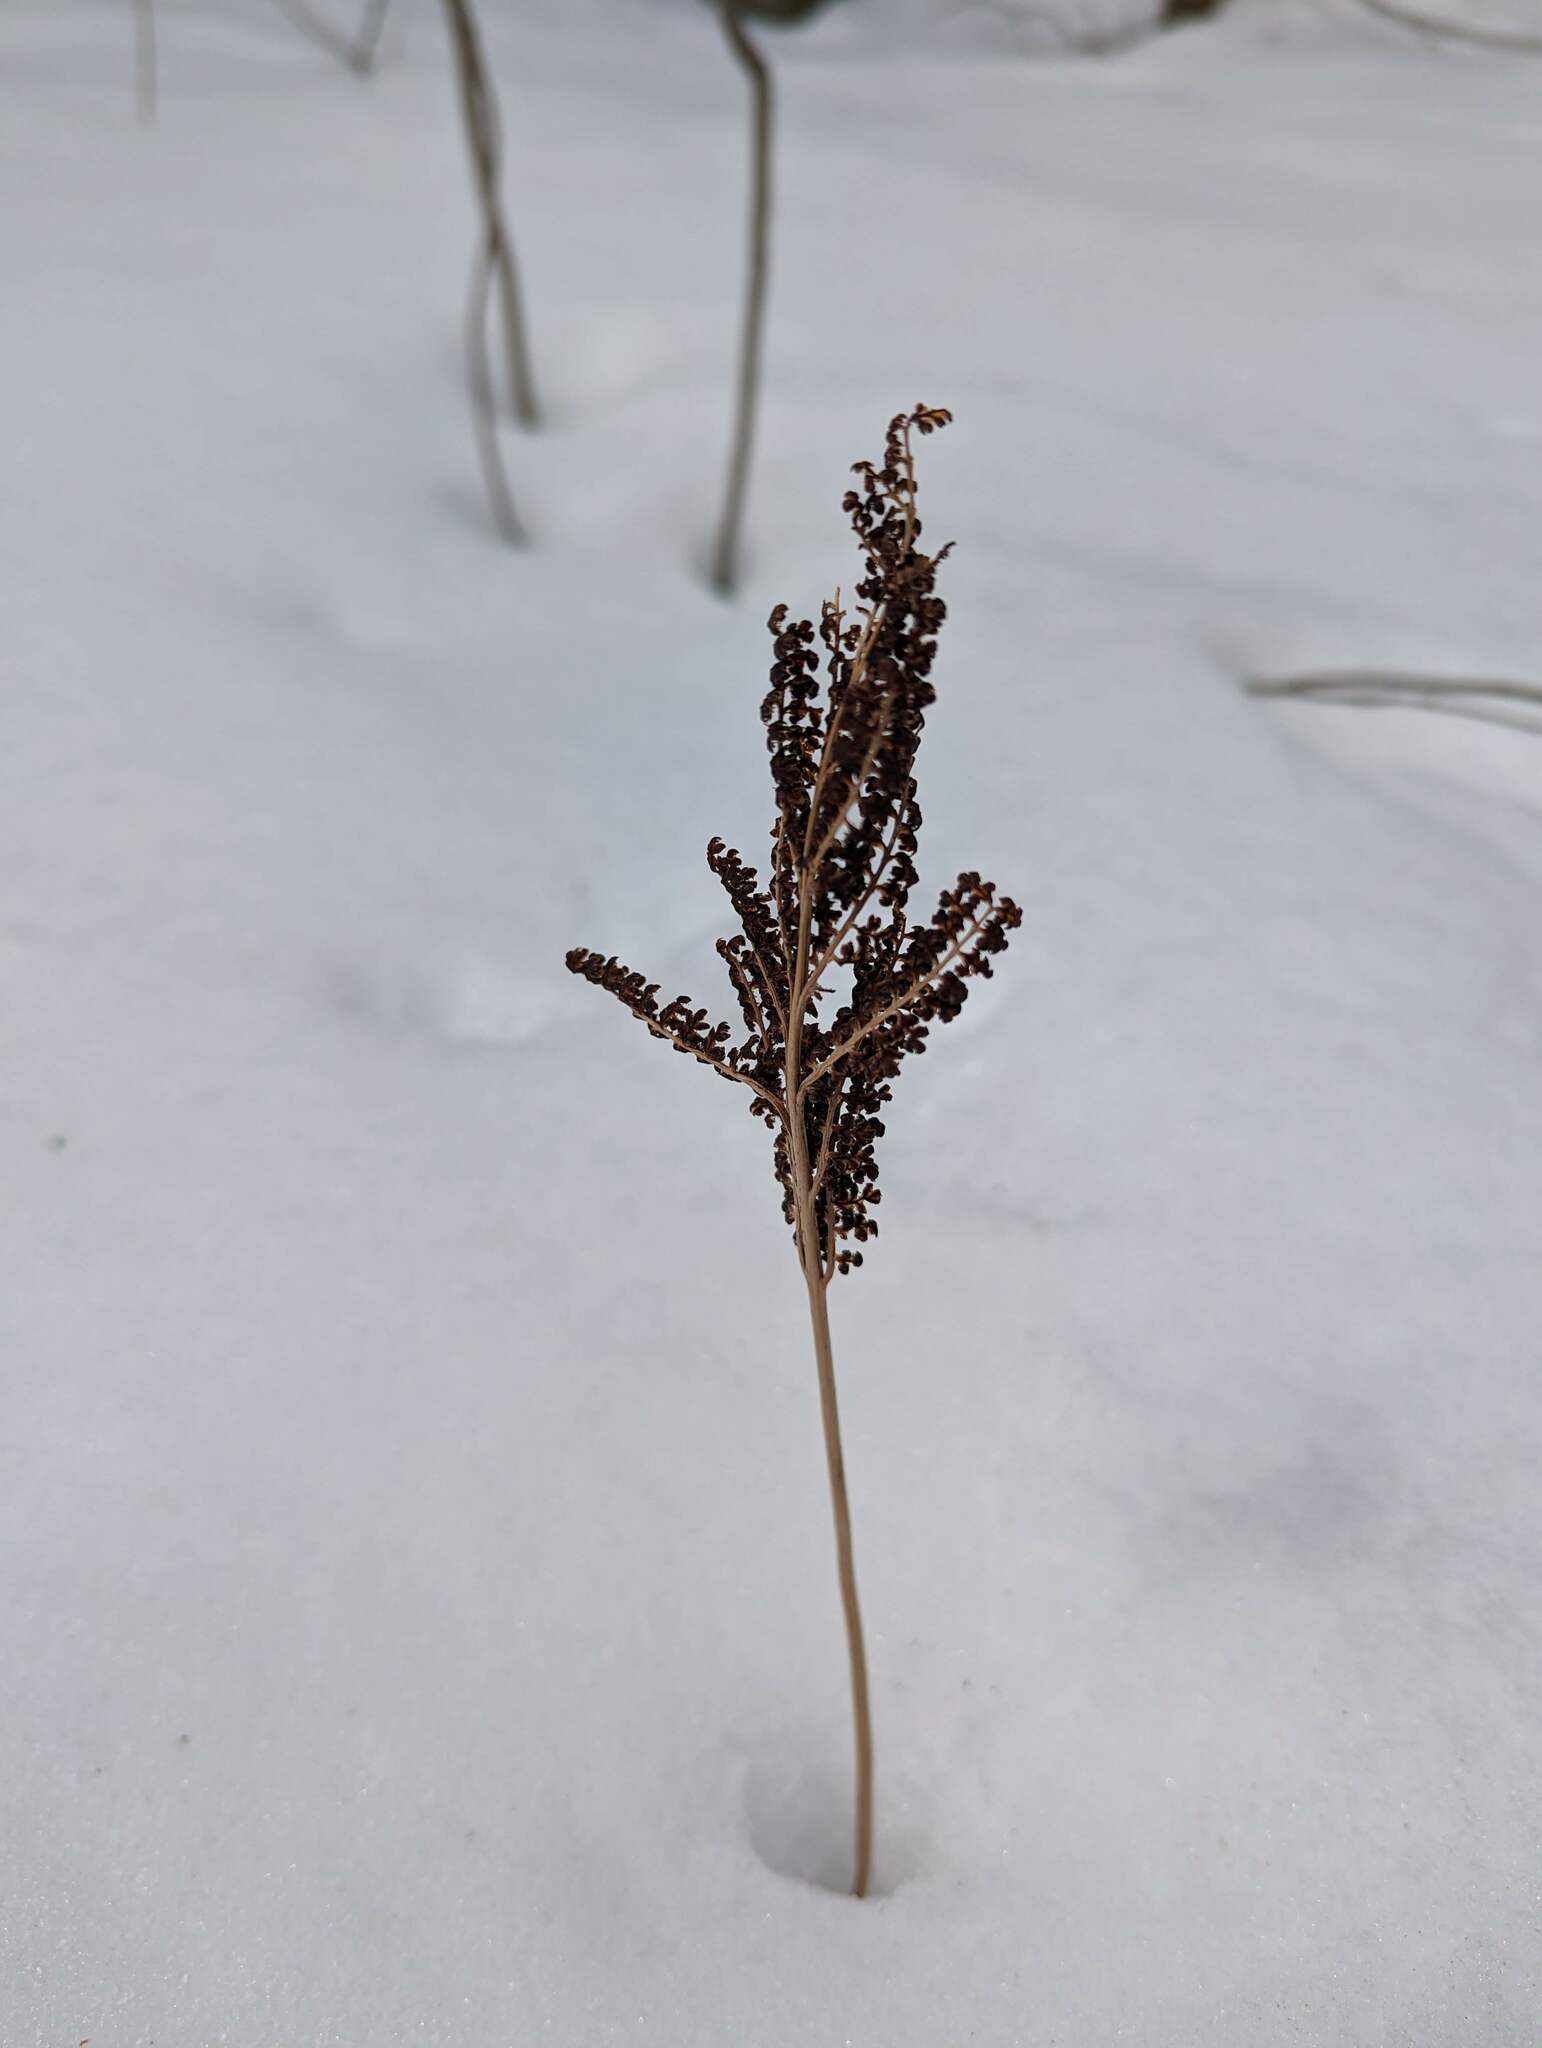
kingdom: Plantae
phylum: Tracheophyta
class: Polypodiopsida
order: Polypodiales
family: Onocleaceae
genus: Onoclea
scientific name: Onoclea sensibilis
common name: Sensitive fern
